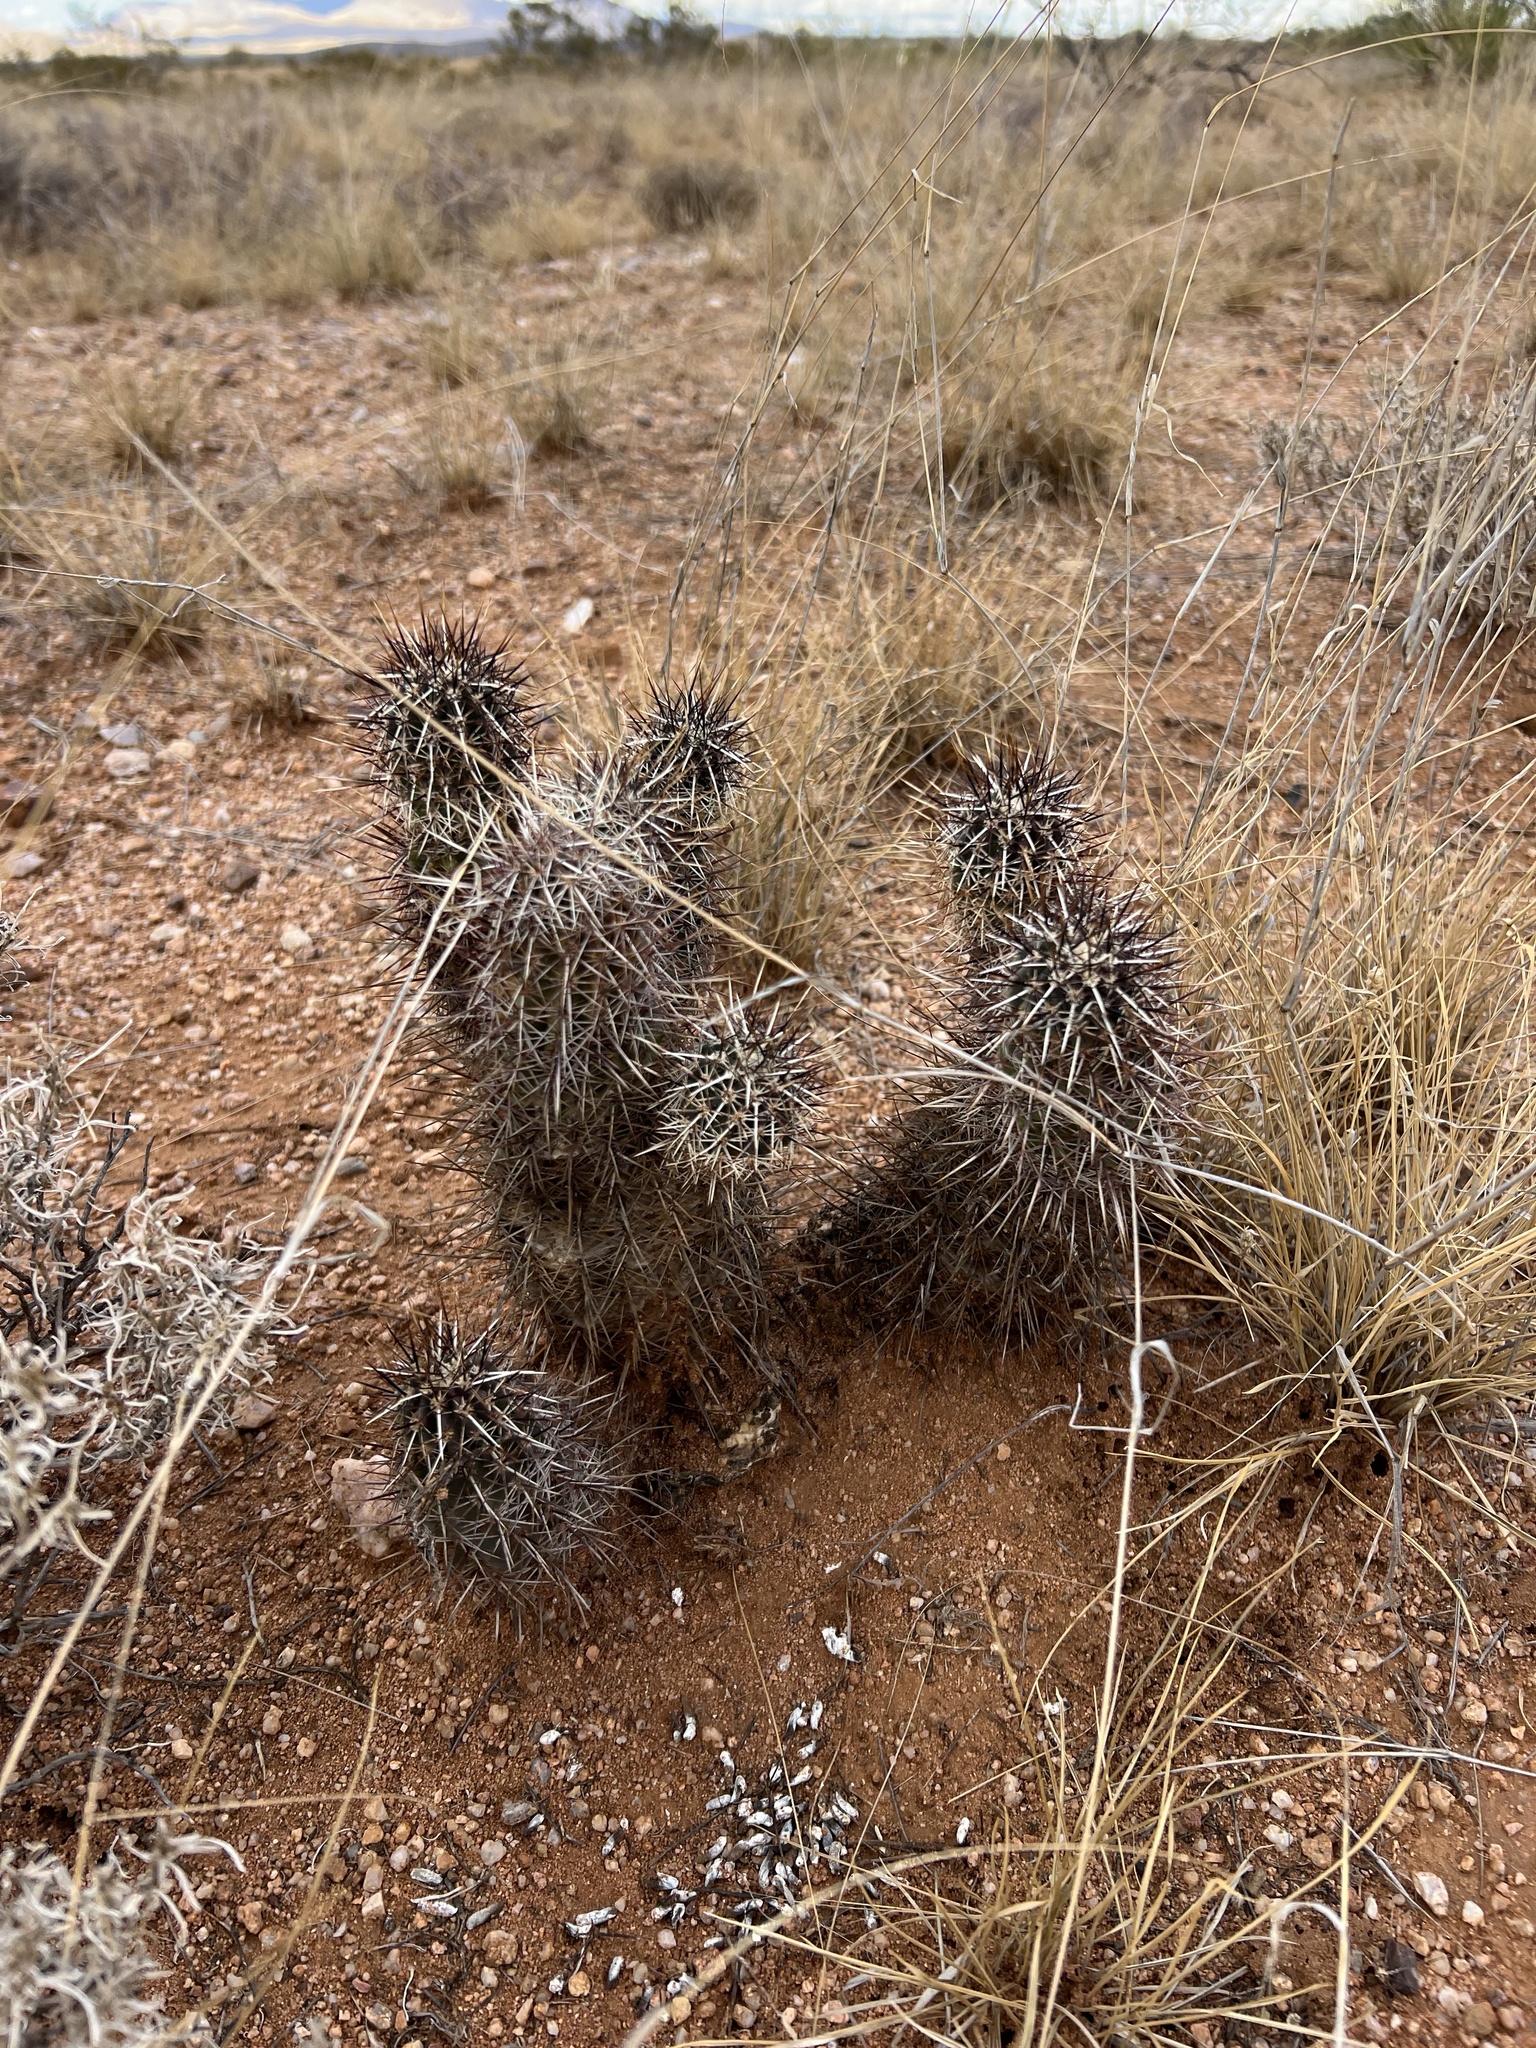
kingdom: Plantae
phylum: Tracheophyta
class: Magnoliopsida
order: Caryophyllales
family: Cactaceae
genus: Echinocereus
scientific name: Echinocereus fasciculatus
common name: Bundle hedgehog
